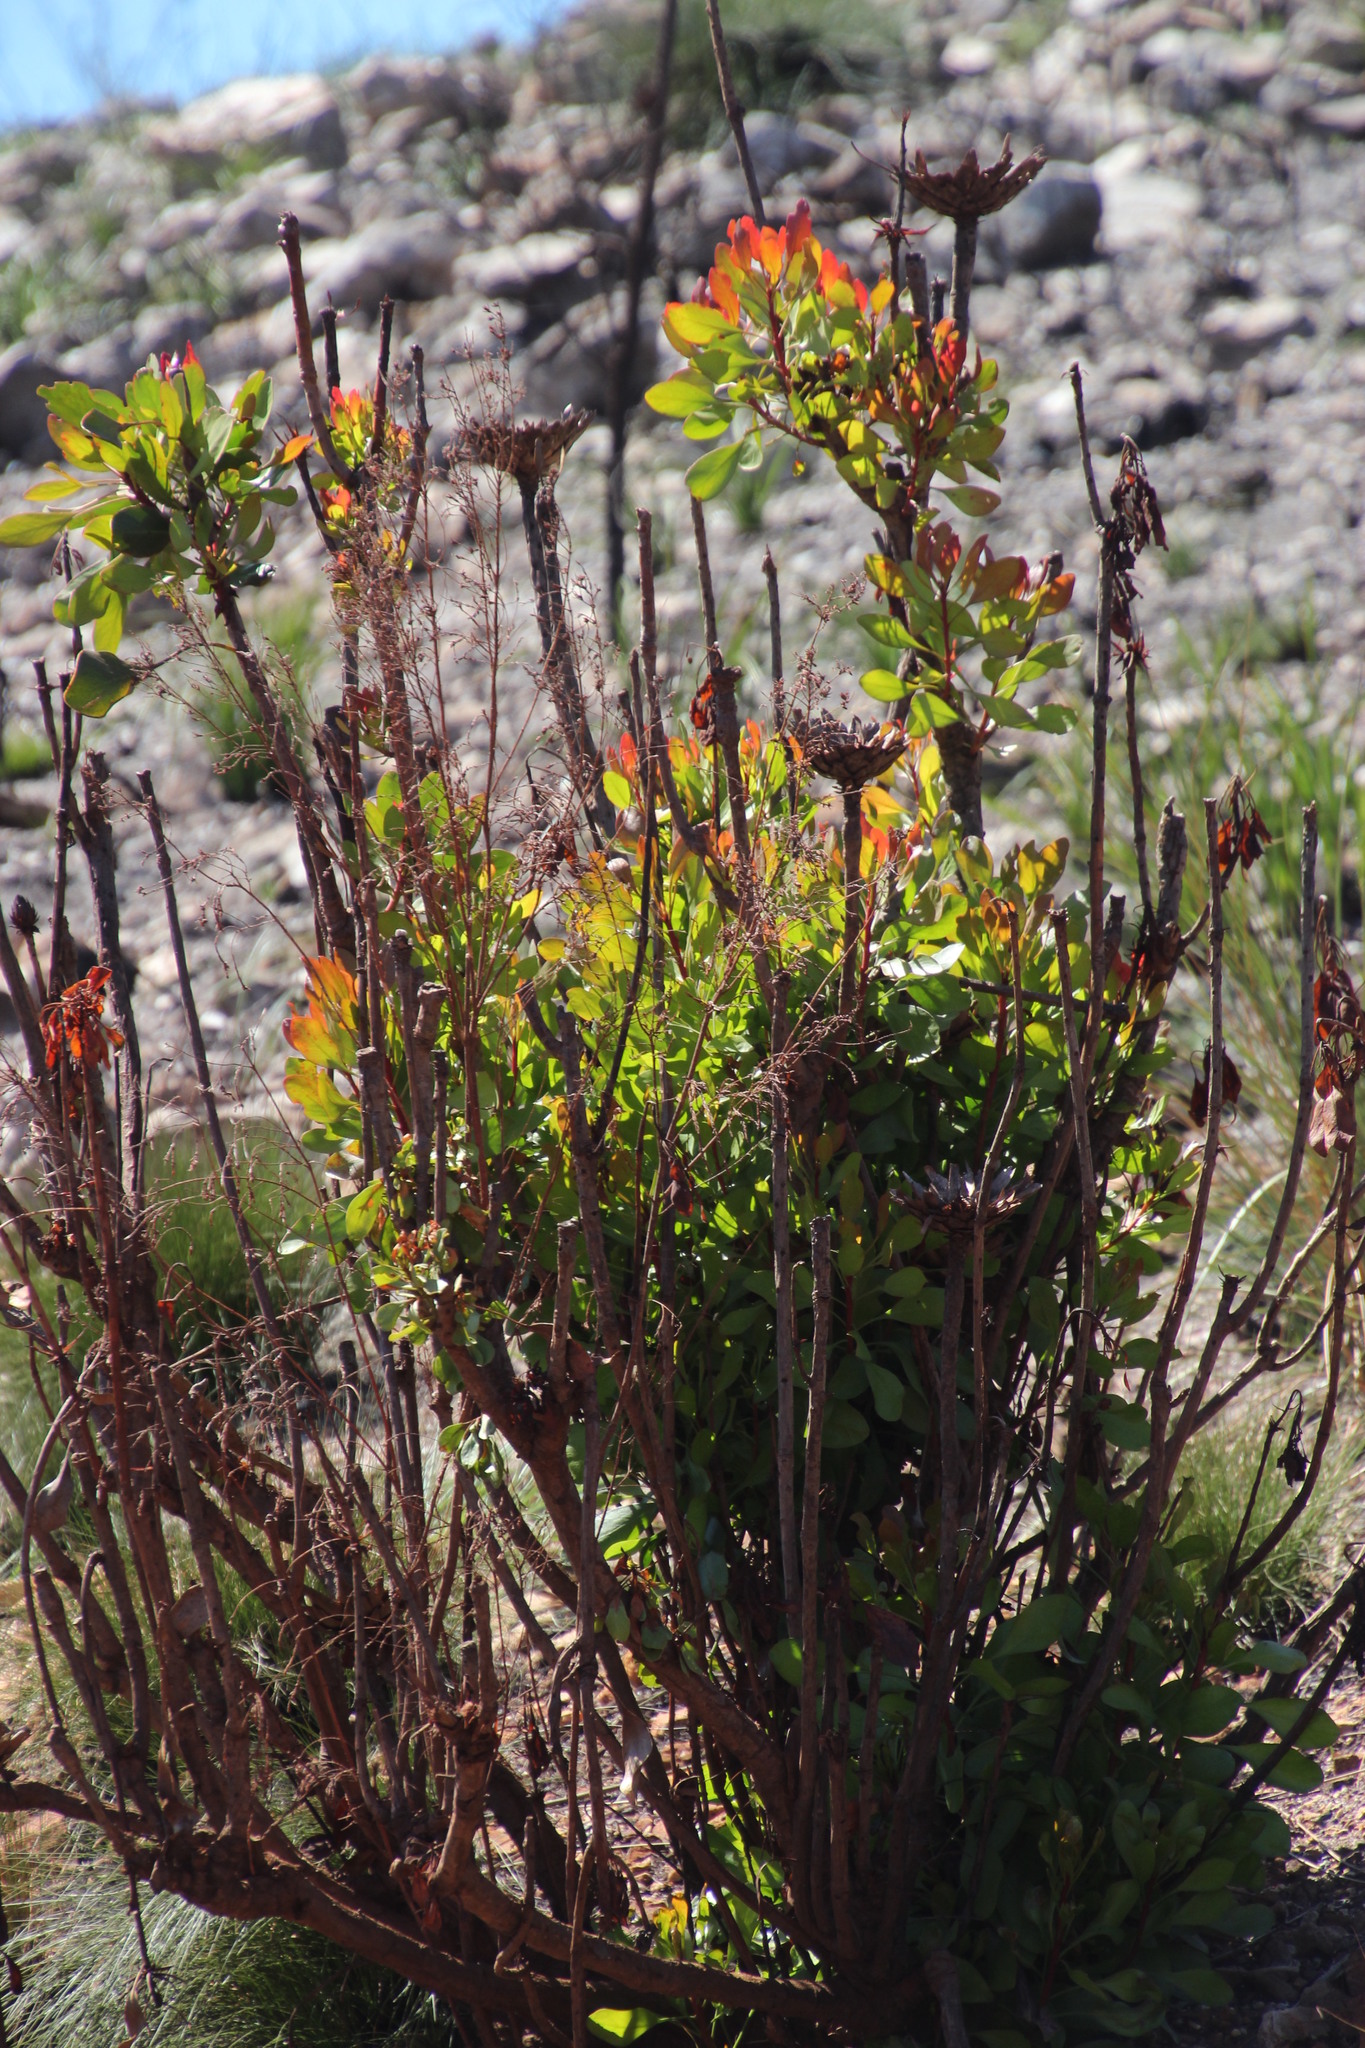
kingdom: Plantae
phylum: Tracheophyta
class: Magnoliopsida
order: Proteales
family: Proteaceae
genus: Protea
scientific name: Protea cynaroides
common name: King protea
